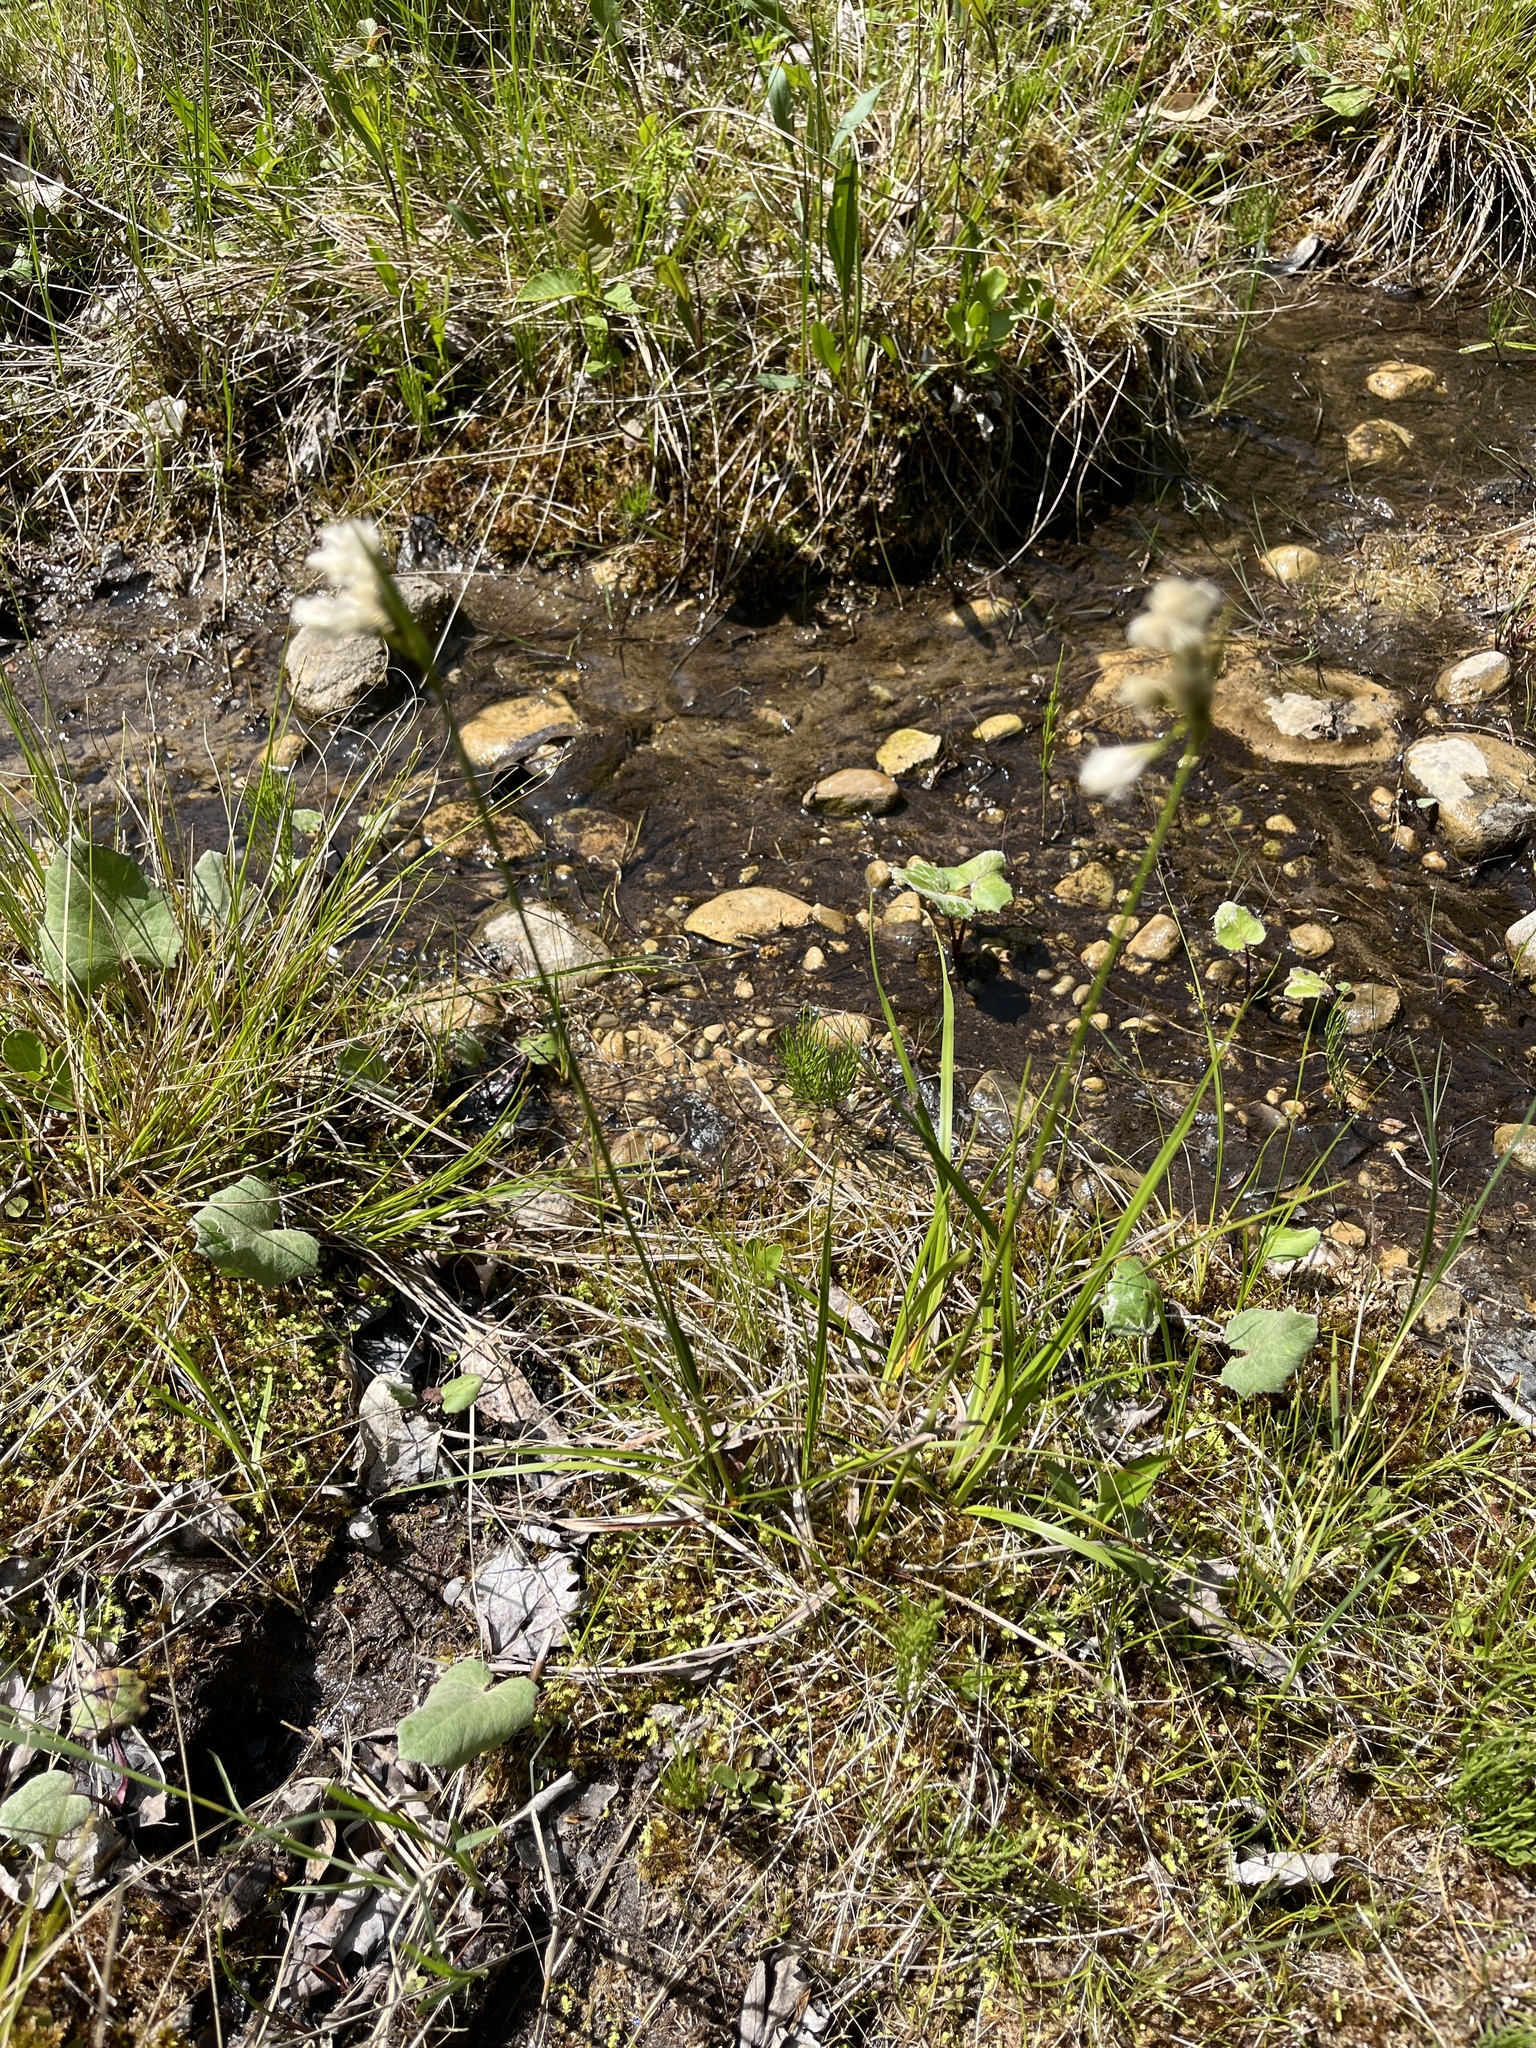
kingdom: Plantae
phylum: Tracheophyta
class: Liliopsida
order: Poales
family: Cyperaceae
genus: Eriophorum
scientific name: Eriophorum viridicarinatum
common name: Green-keeled cottongrass
